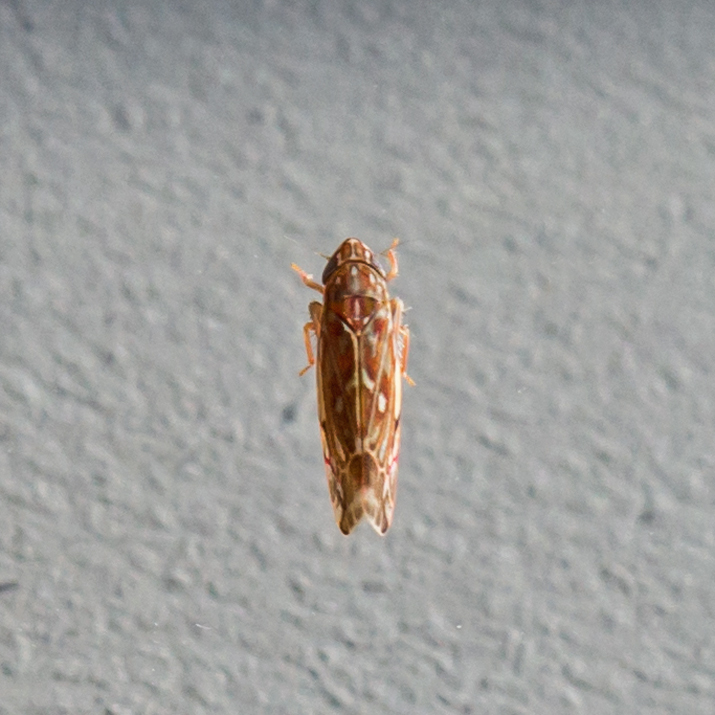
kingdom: Animalia
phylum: Arthropoda
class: Insecta
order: Hemiptera
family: Cicadellidae
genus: Erasmoneura
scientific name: Erasmoneura vulnerata
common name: The wounded leafhopper
